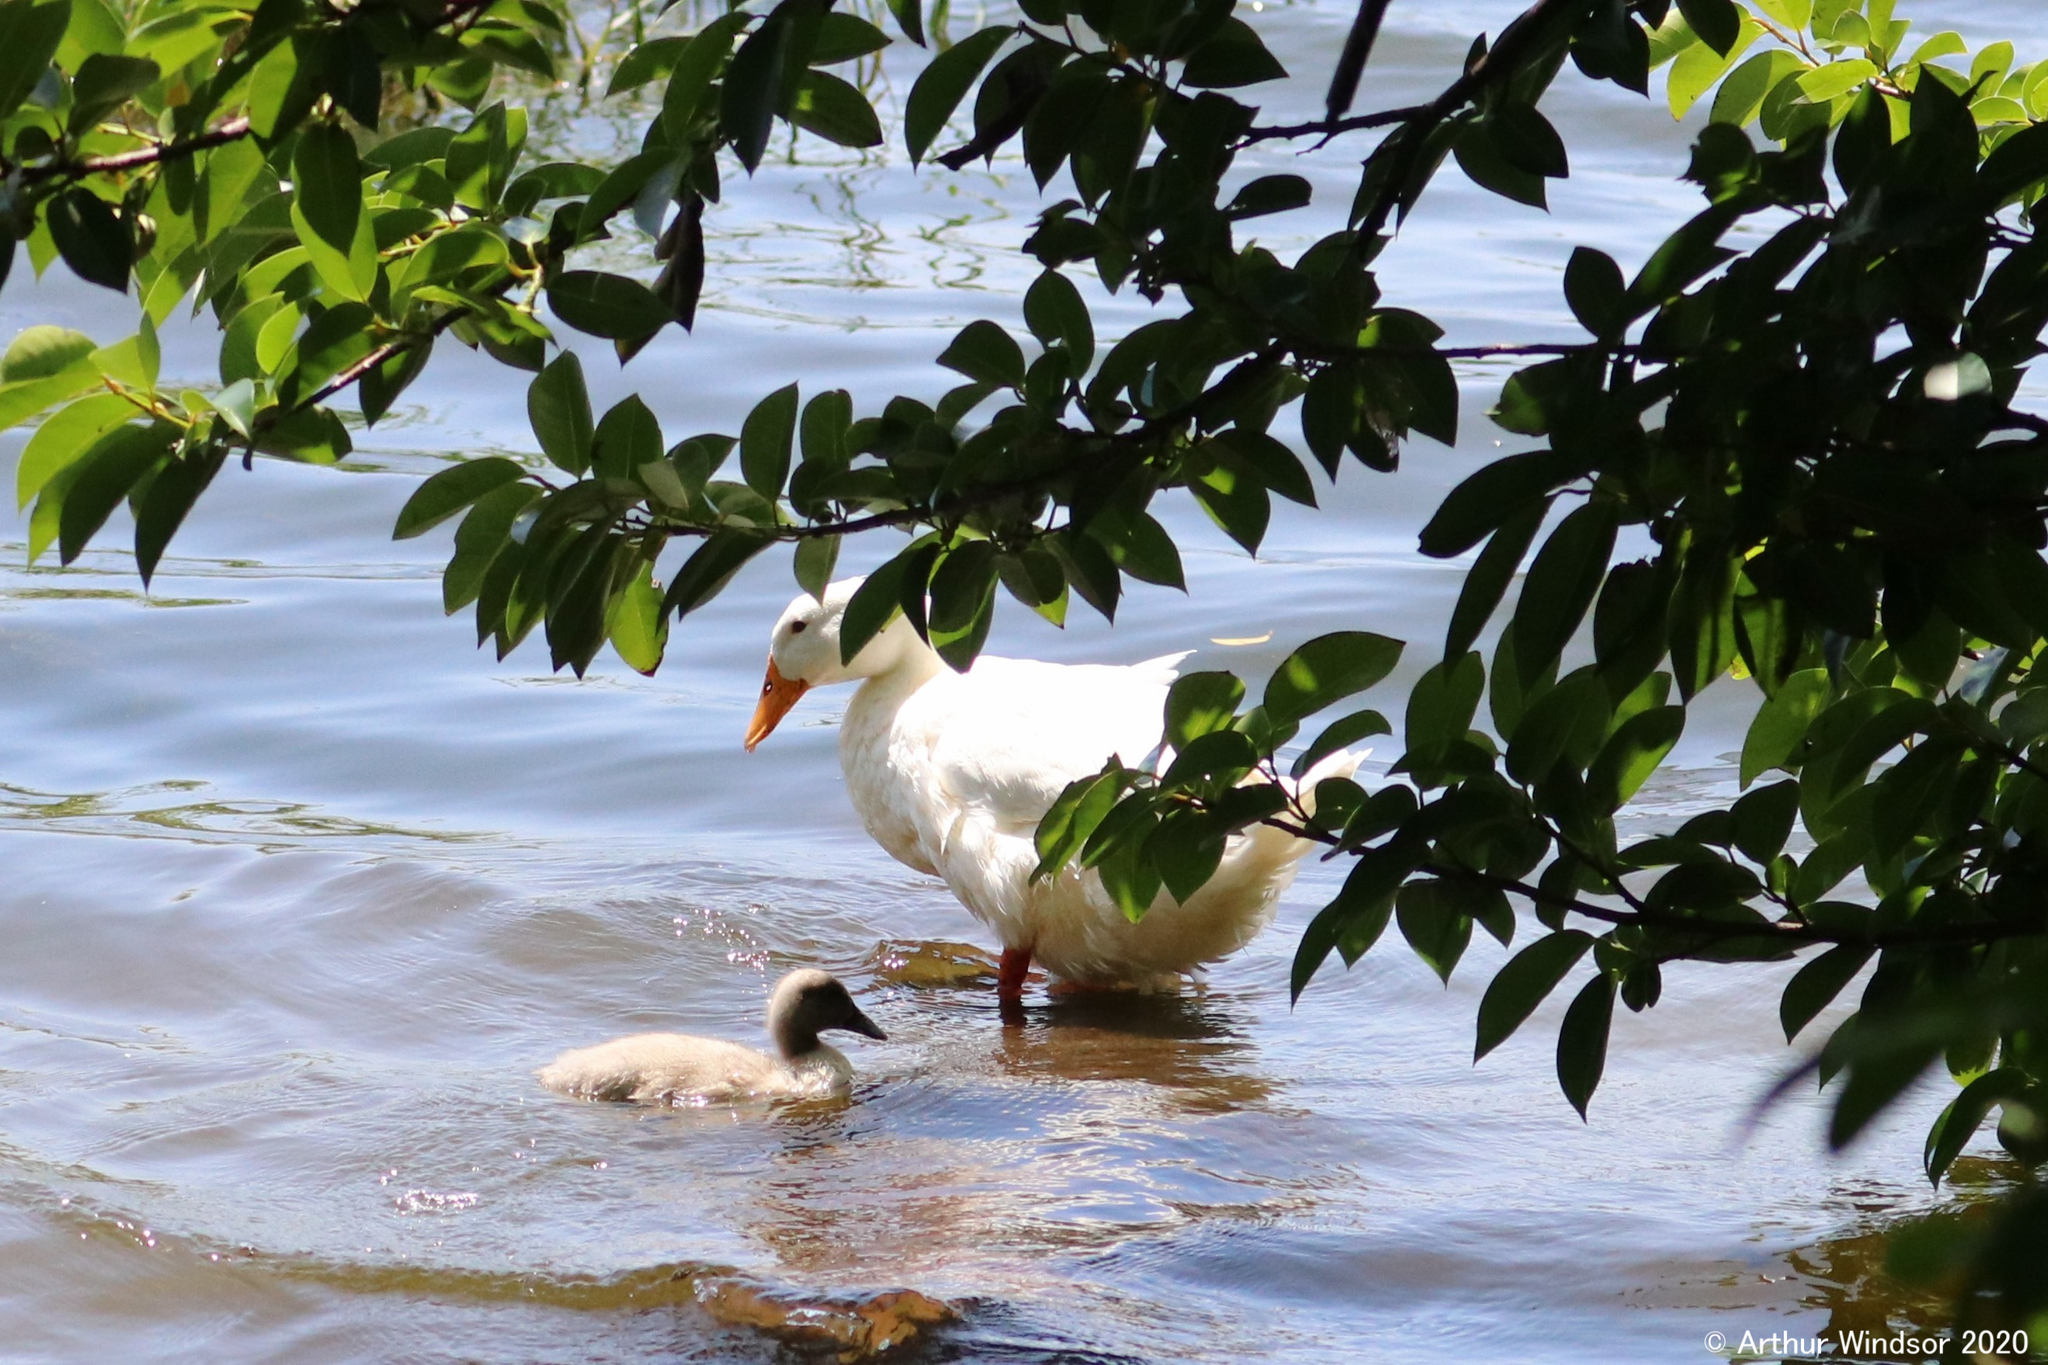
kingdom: Animalia
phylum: Chordata
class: Aves
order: Anseriformes
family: Anatidae
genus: Anas
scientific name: Anas platyrhynchos
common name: Mallard
